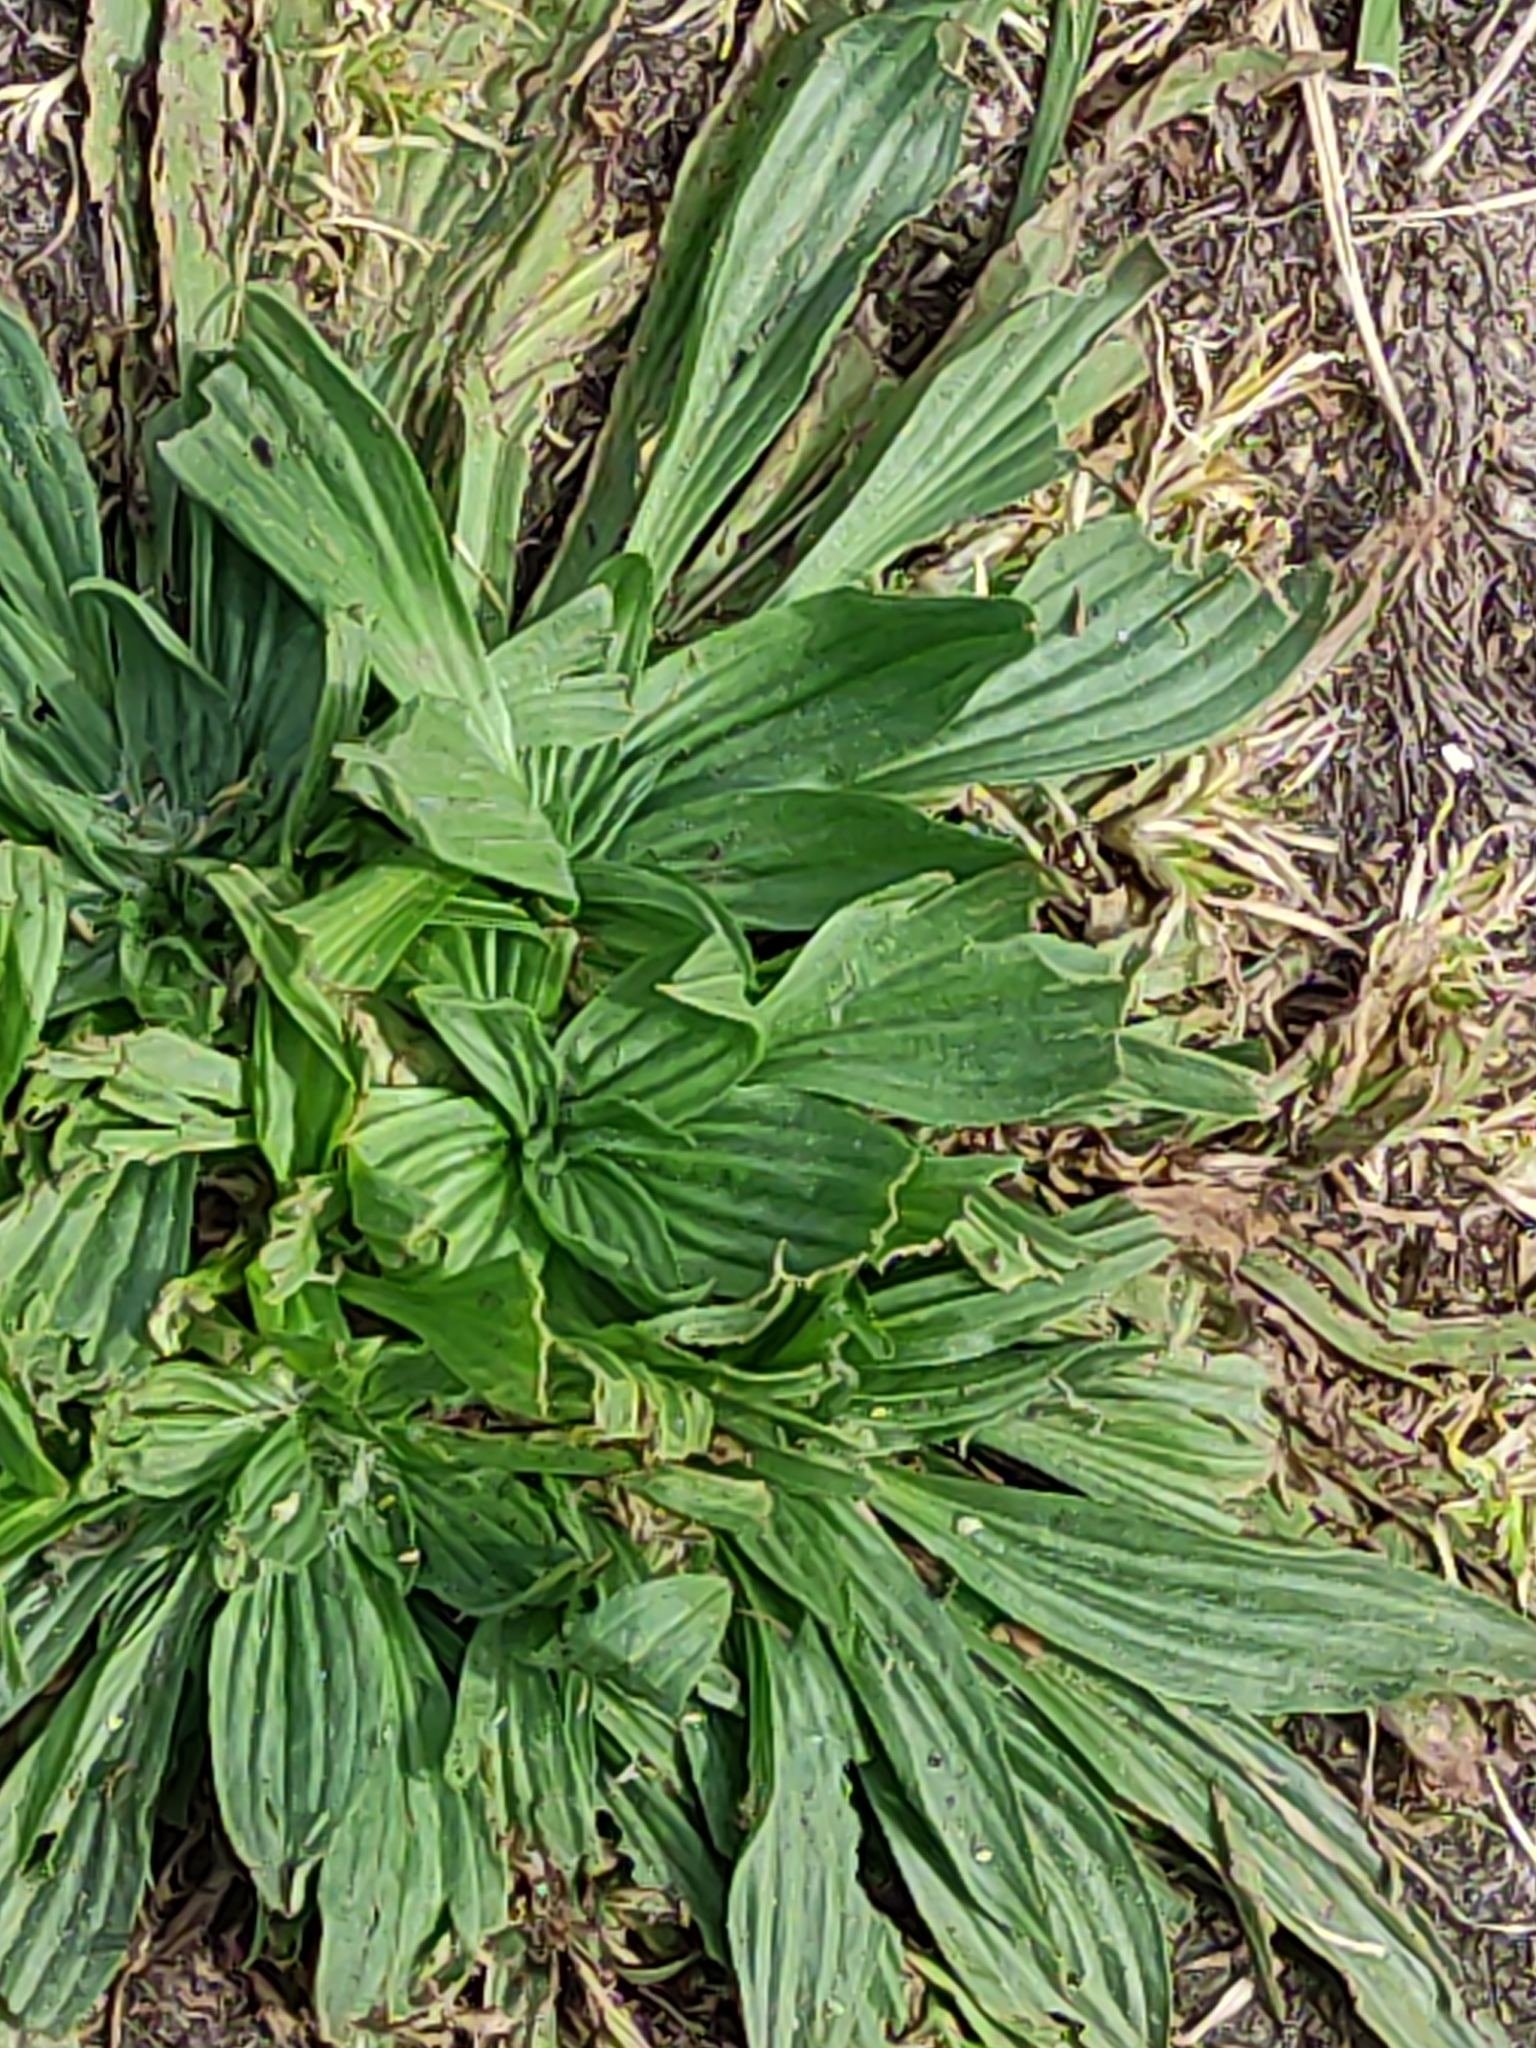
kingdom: Plantae
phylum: Tracheophyta
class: Magnoliopsida
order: Lamiales
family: Plantaginaceae
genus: Plantago
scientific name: Plantago lanceolata
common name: Ribwort plantain
